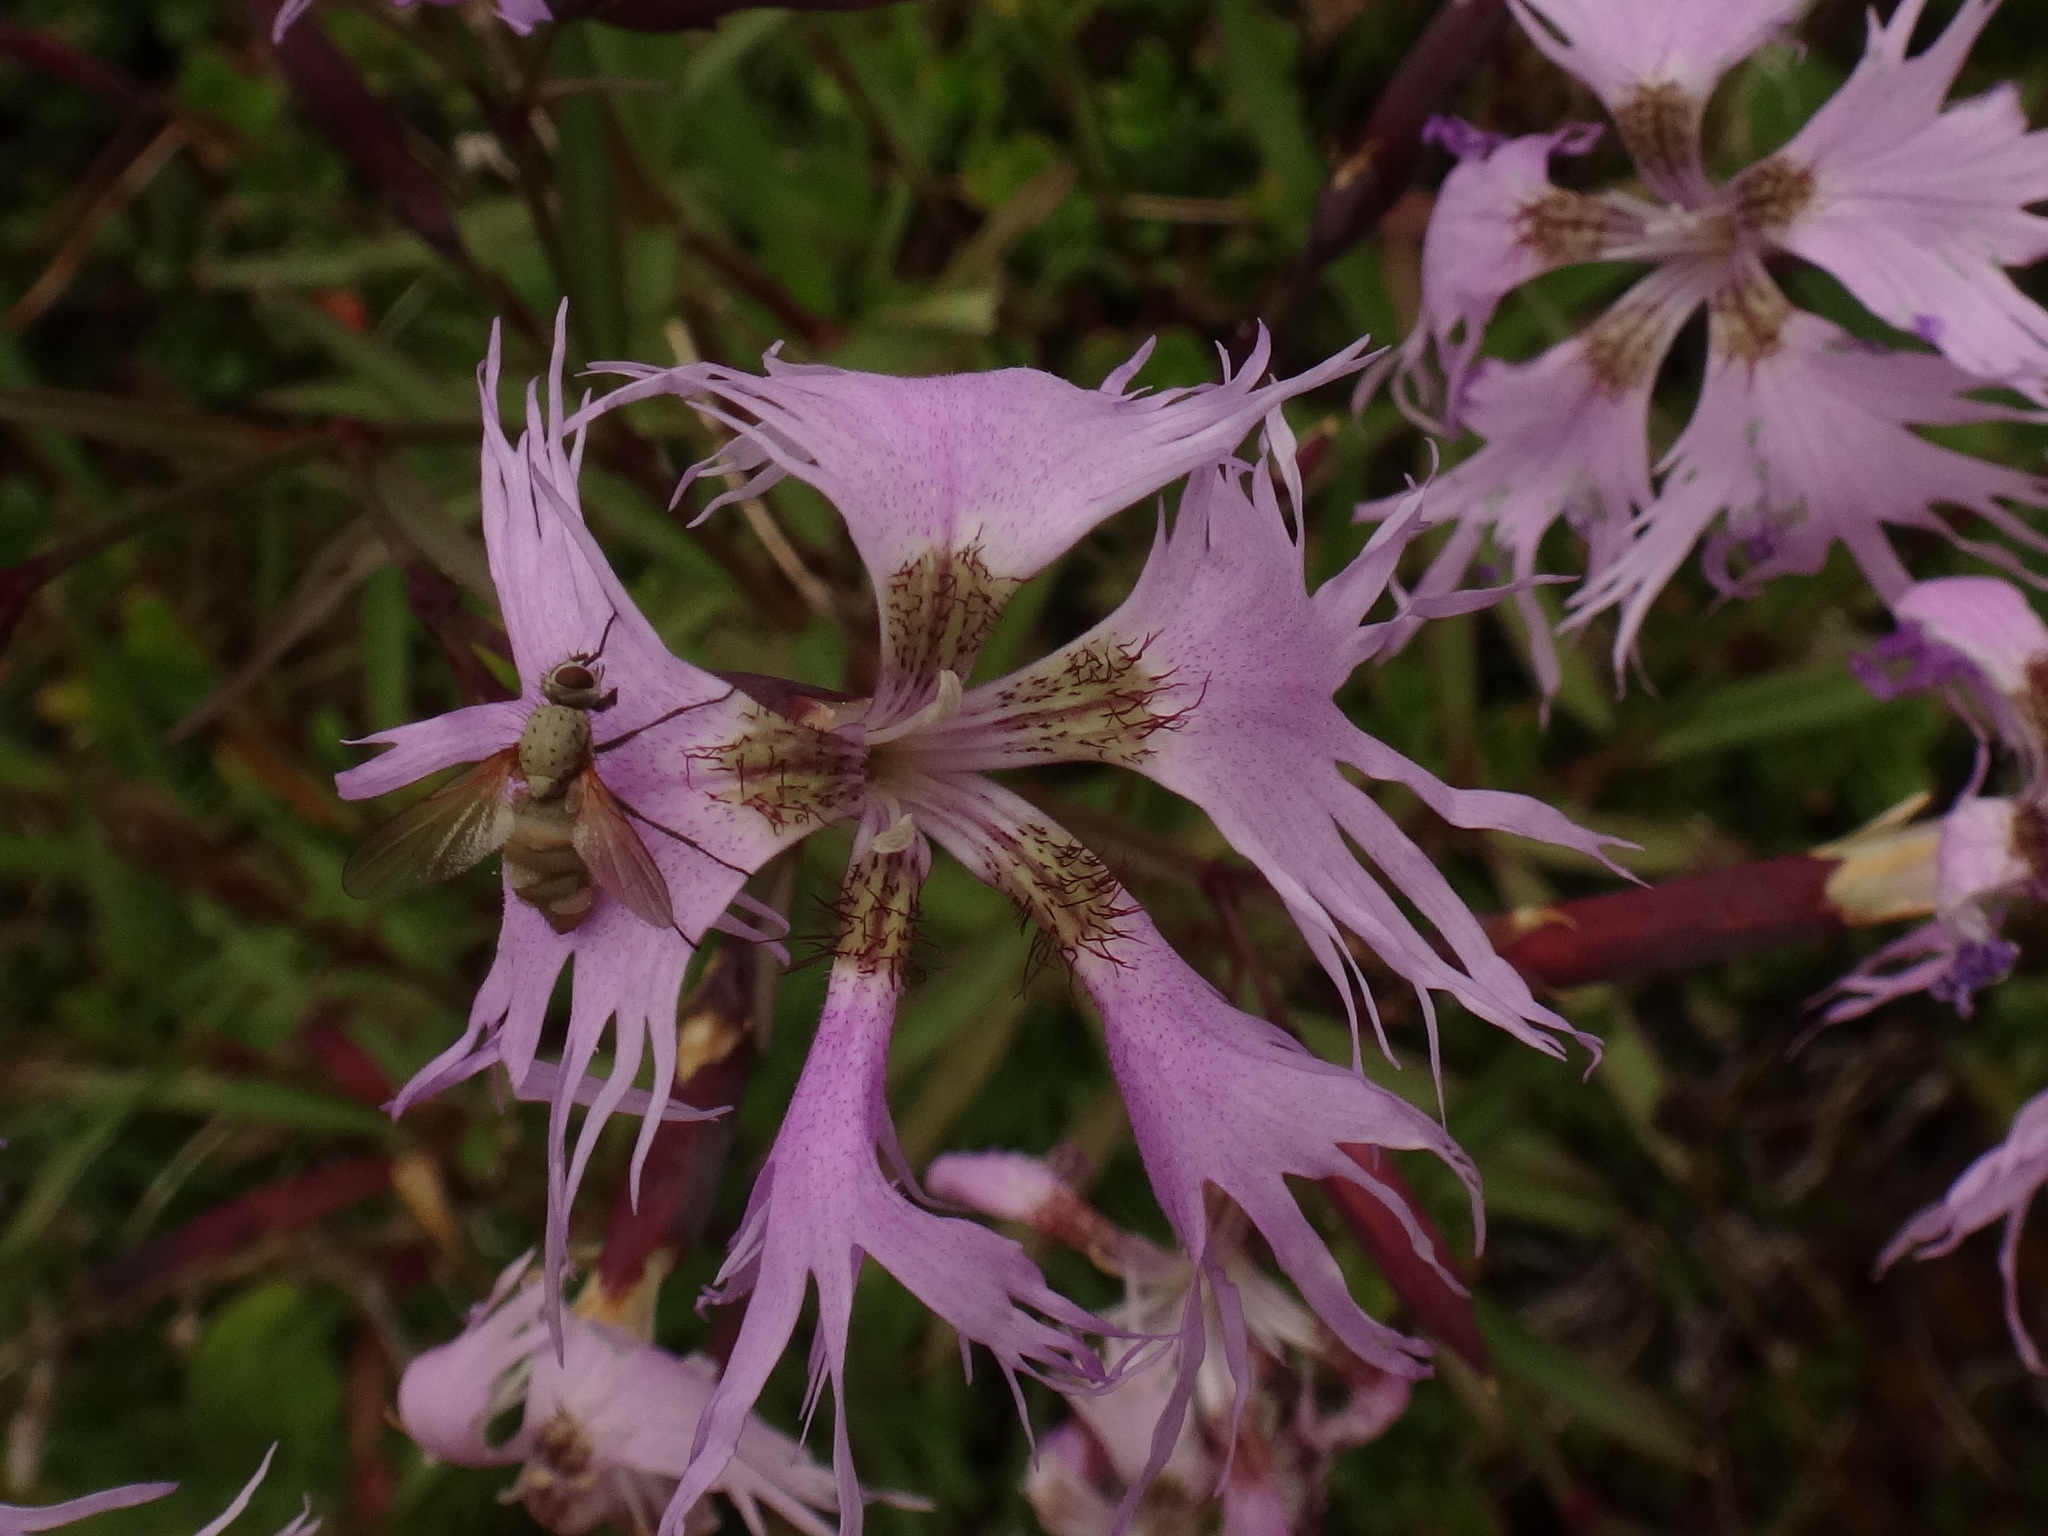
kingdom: Plantae
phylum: Tracheophyta
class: Magnoliopsida
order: Caryophyllales
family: Caryophyllaceae
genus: Dianthus
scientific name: Dianthus superbus
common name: Fringed pink
